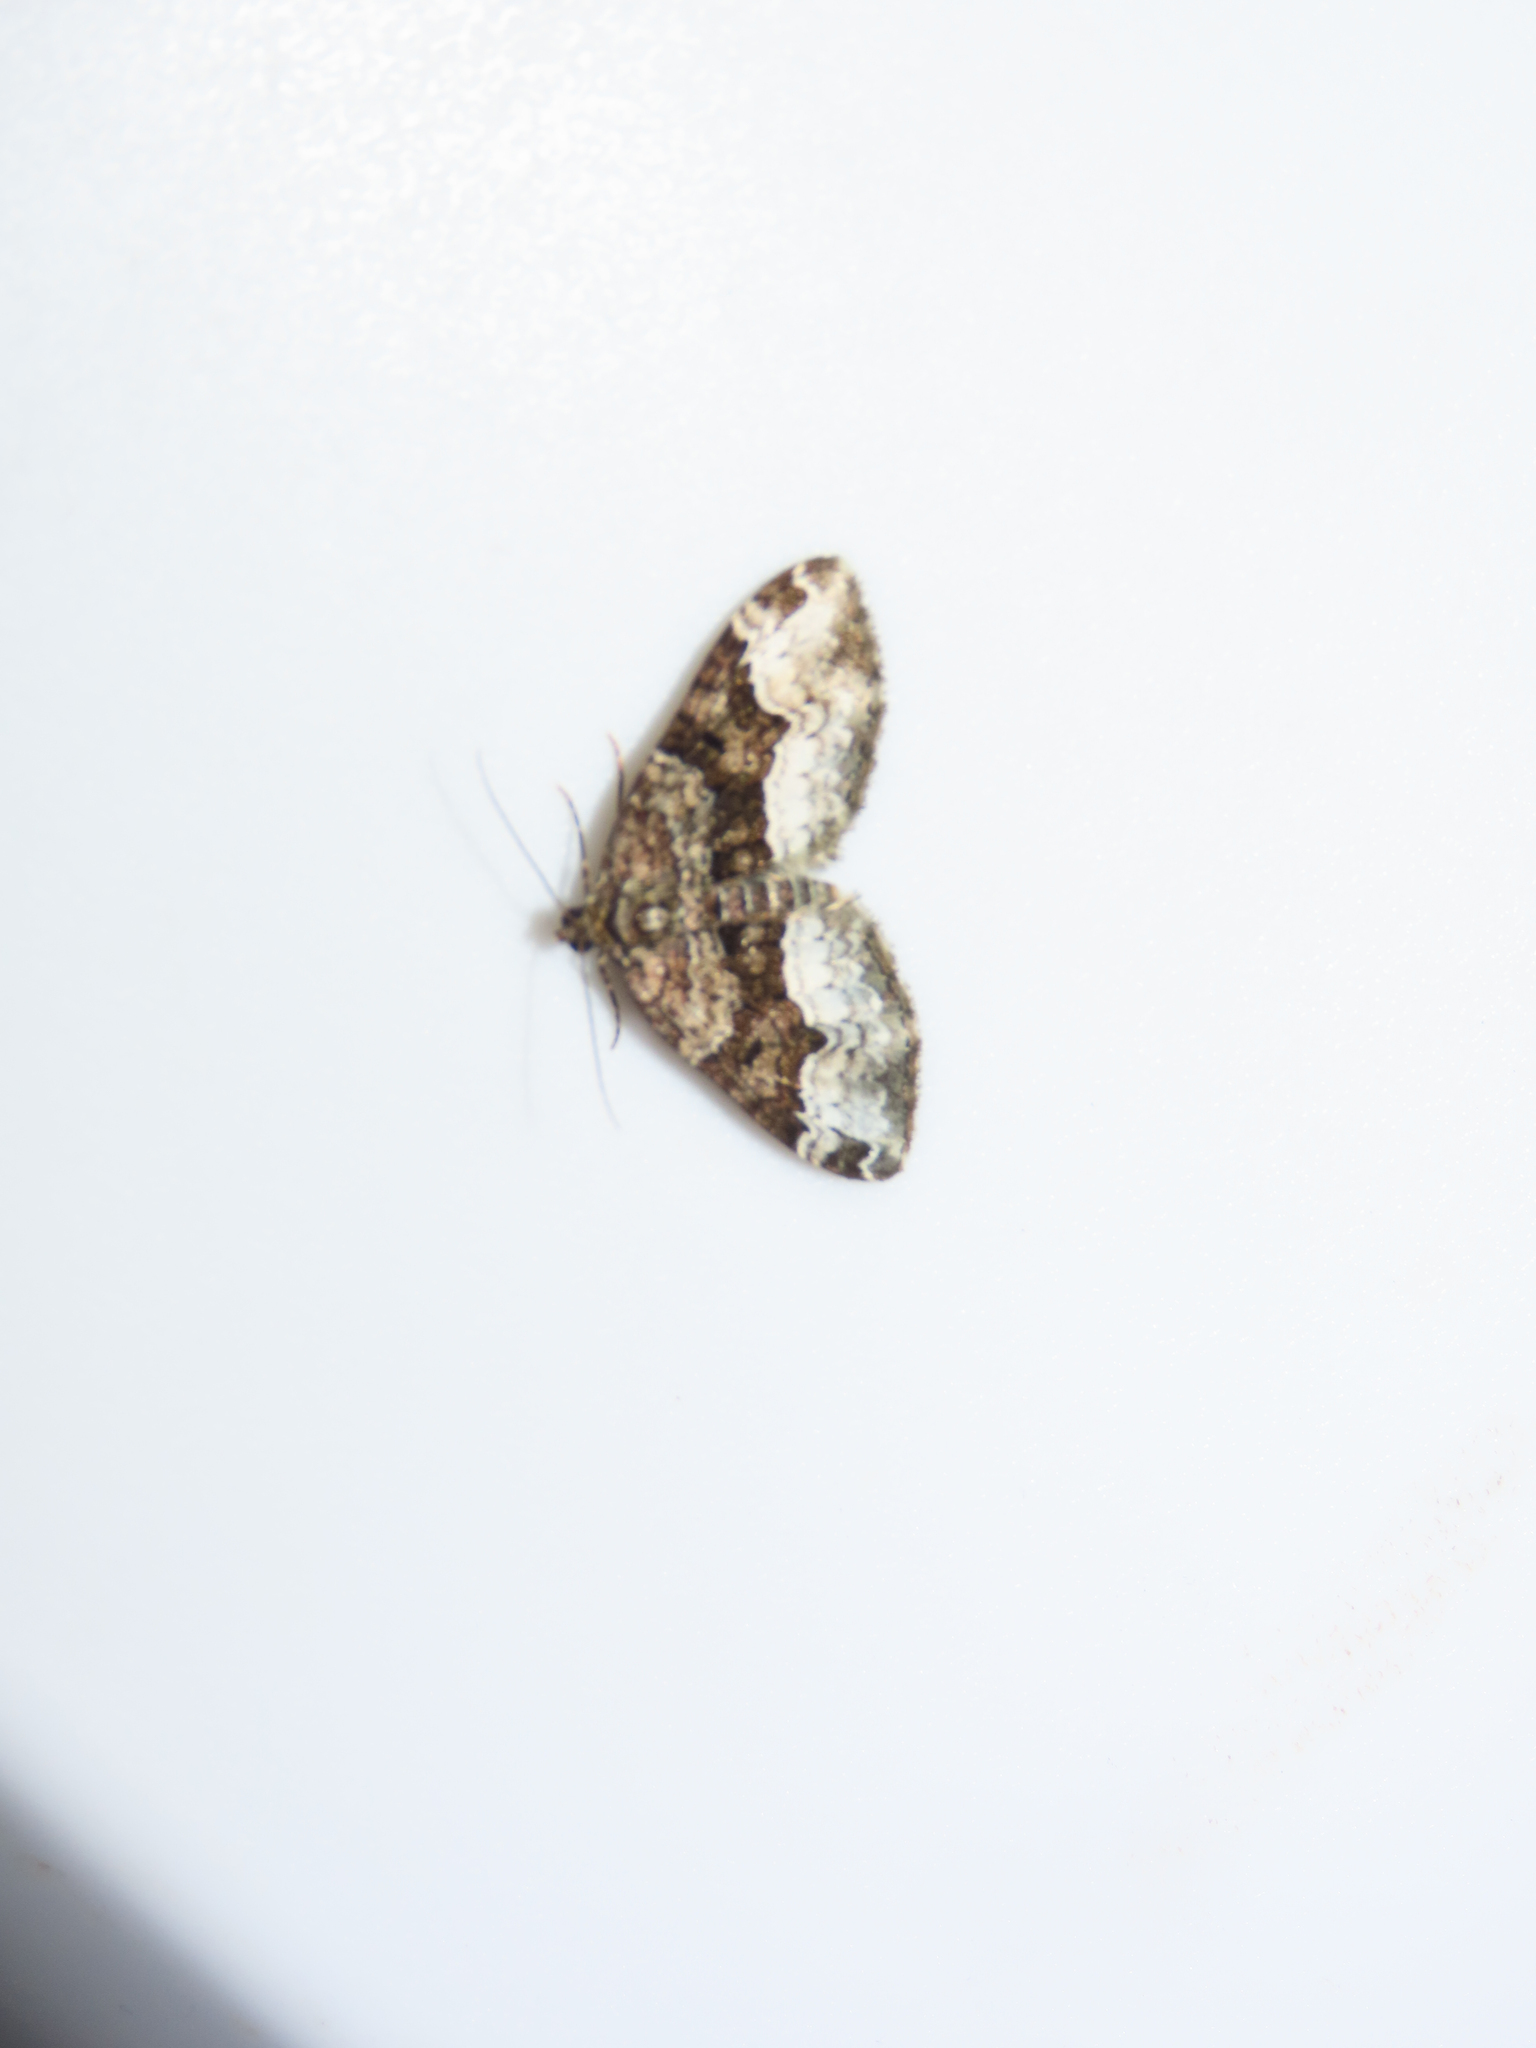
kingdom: Animalia
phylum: Arthropoda
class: Insecta
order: Lepidoptera
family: Geometridae
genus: Euphyia
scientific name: Euphyia intermediata
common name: Sharp-angled carpet
